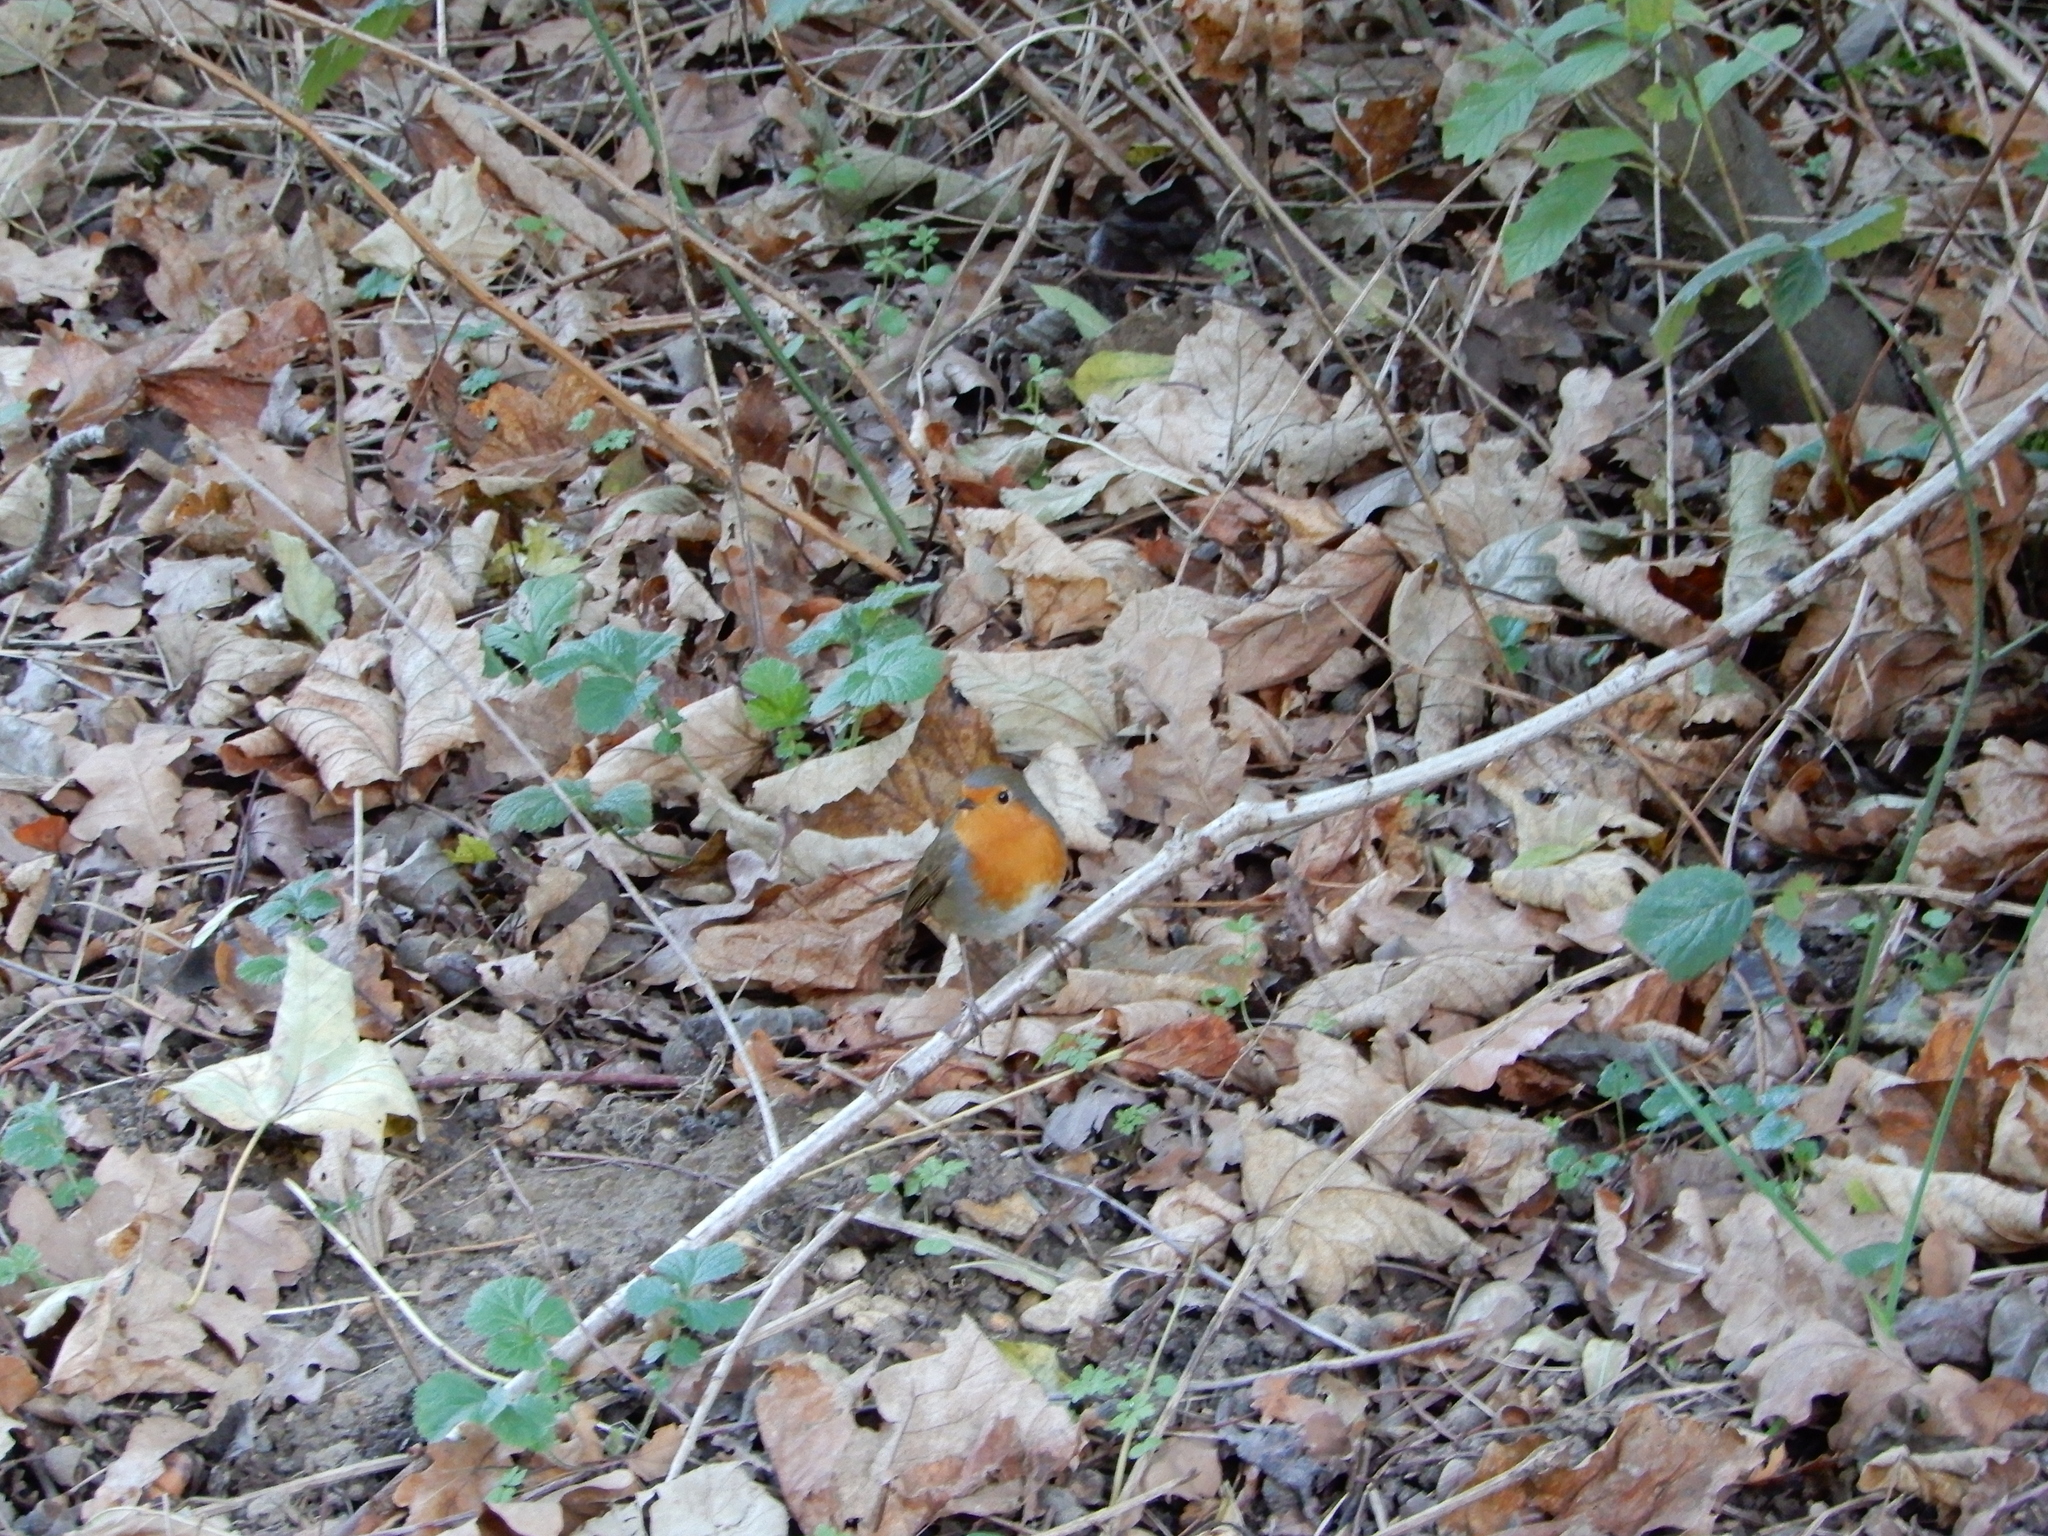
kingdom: Animalia
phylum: Chordata
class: Aves
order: Passeriformes
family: Muscicapidae
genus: Erithacus
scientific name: Erithacus rubecula
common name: European robin
